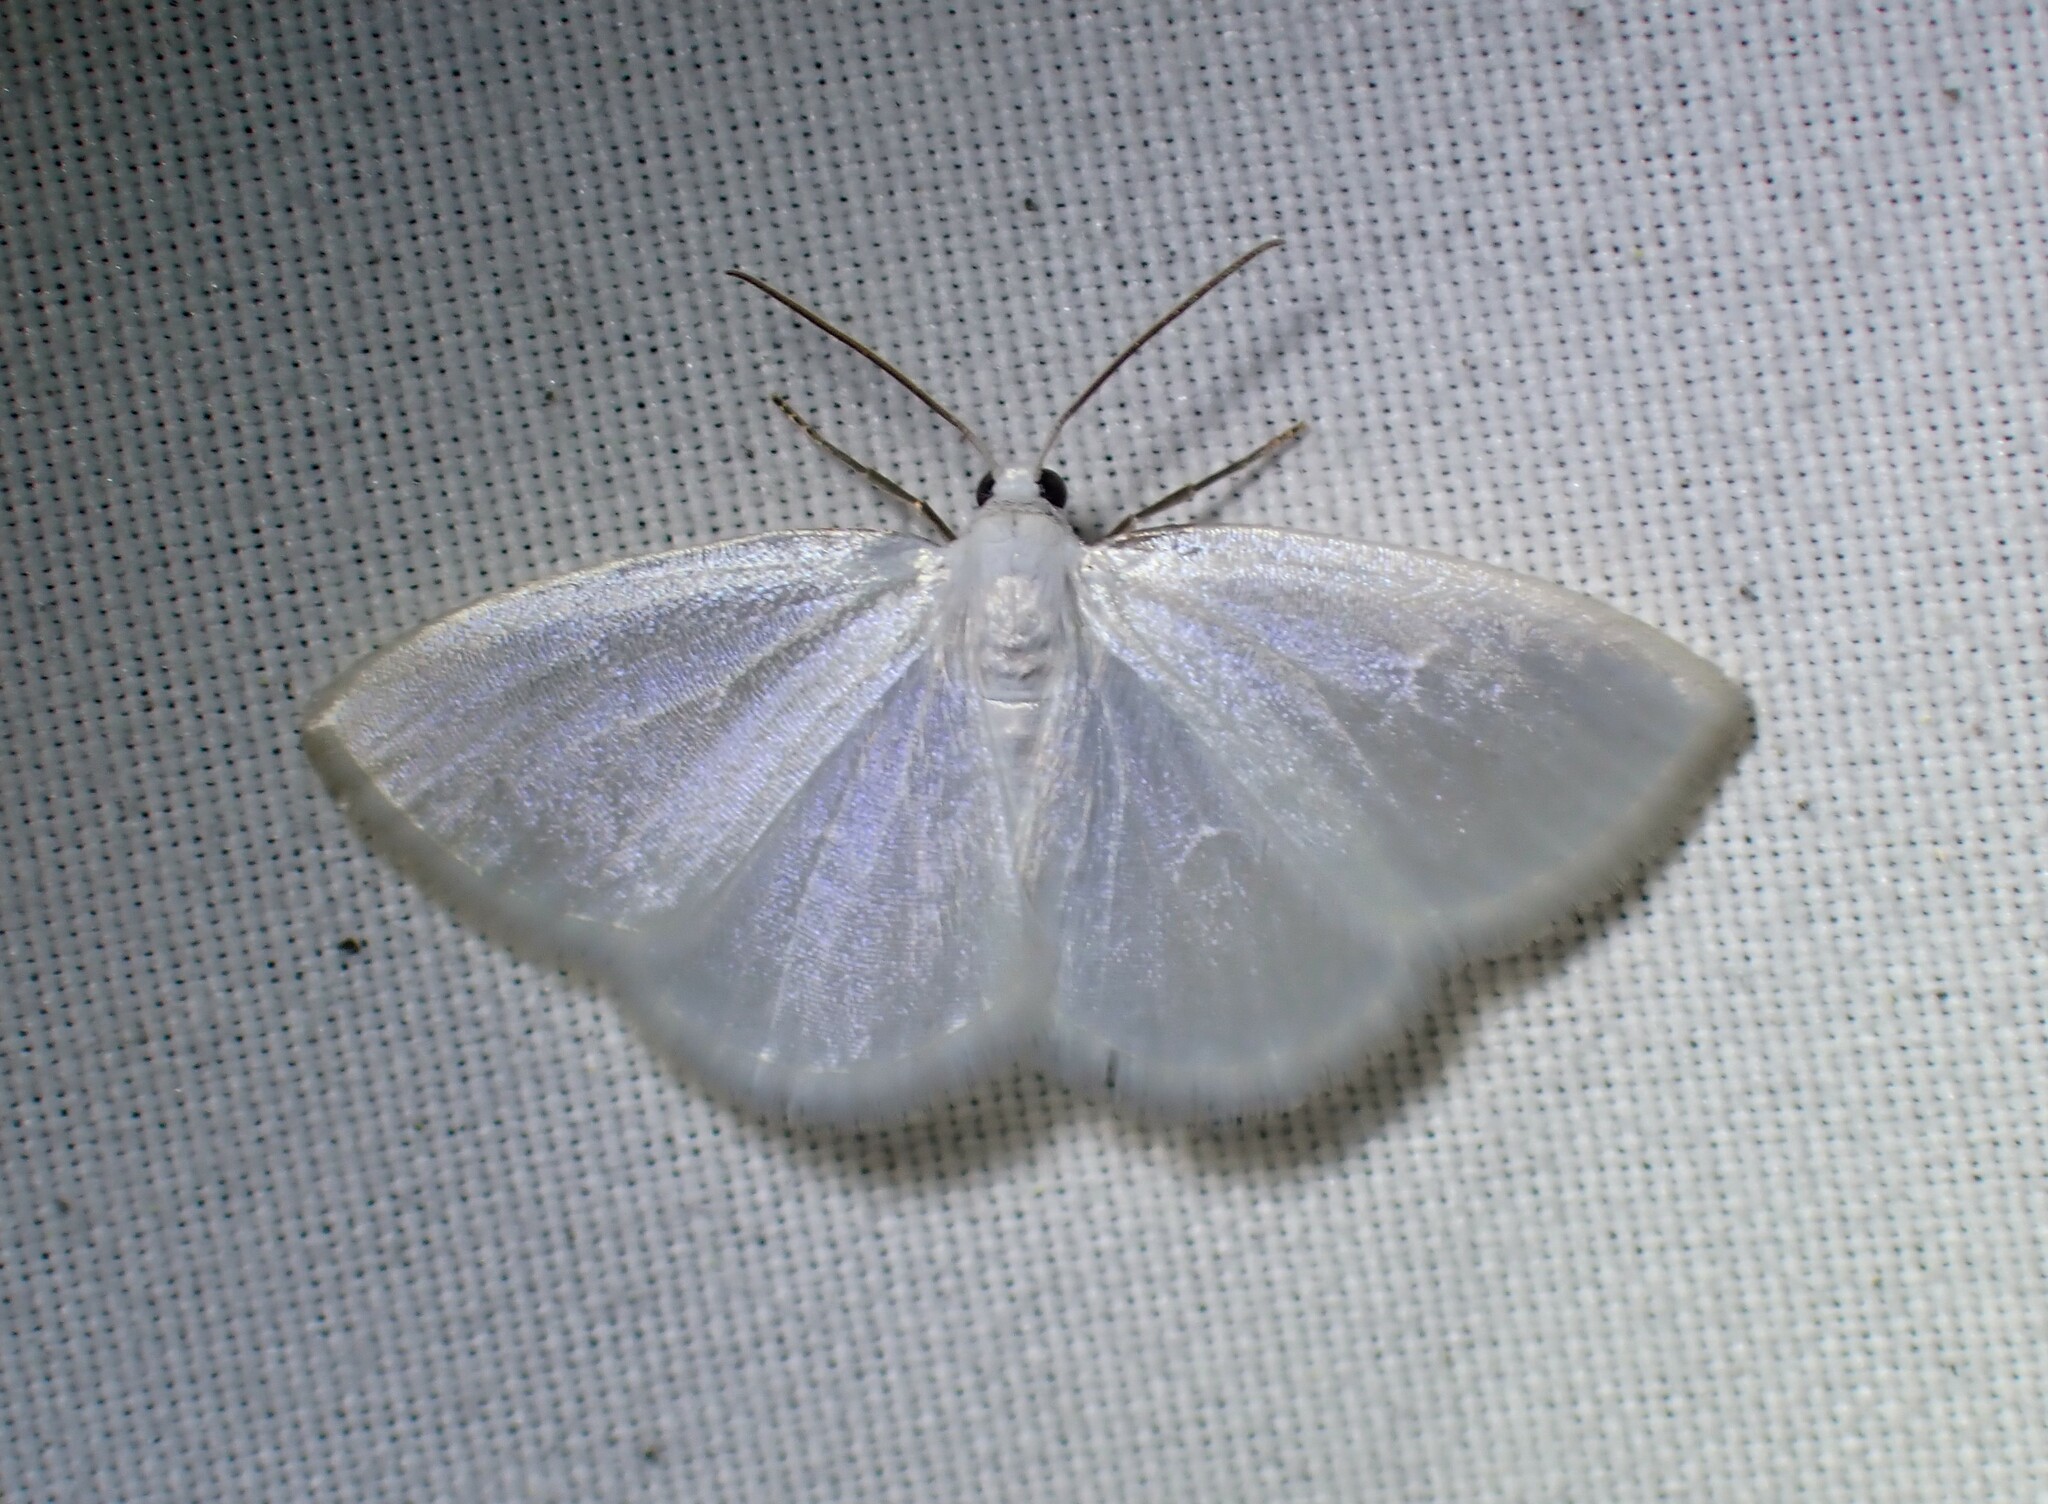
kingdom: Animalia
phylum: Arthropoda
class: Insecta
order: Lepidoptera
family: Geometridae
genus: Lomographa
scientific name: Lomographa vestaliata
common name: White spring moth
